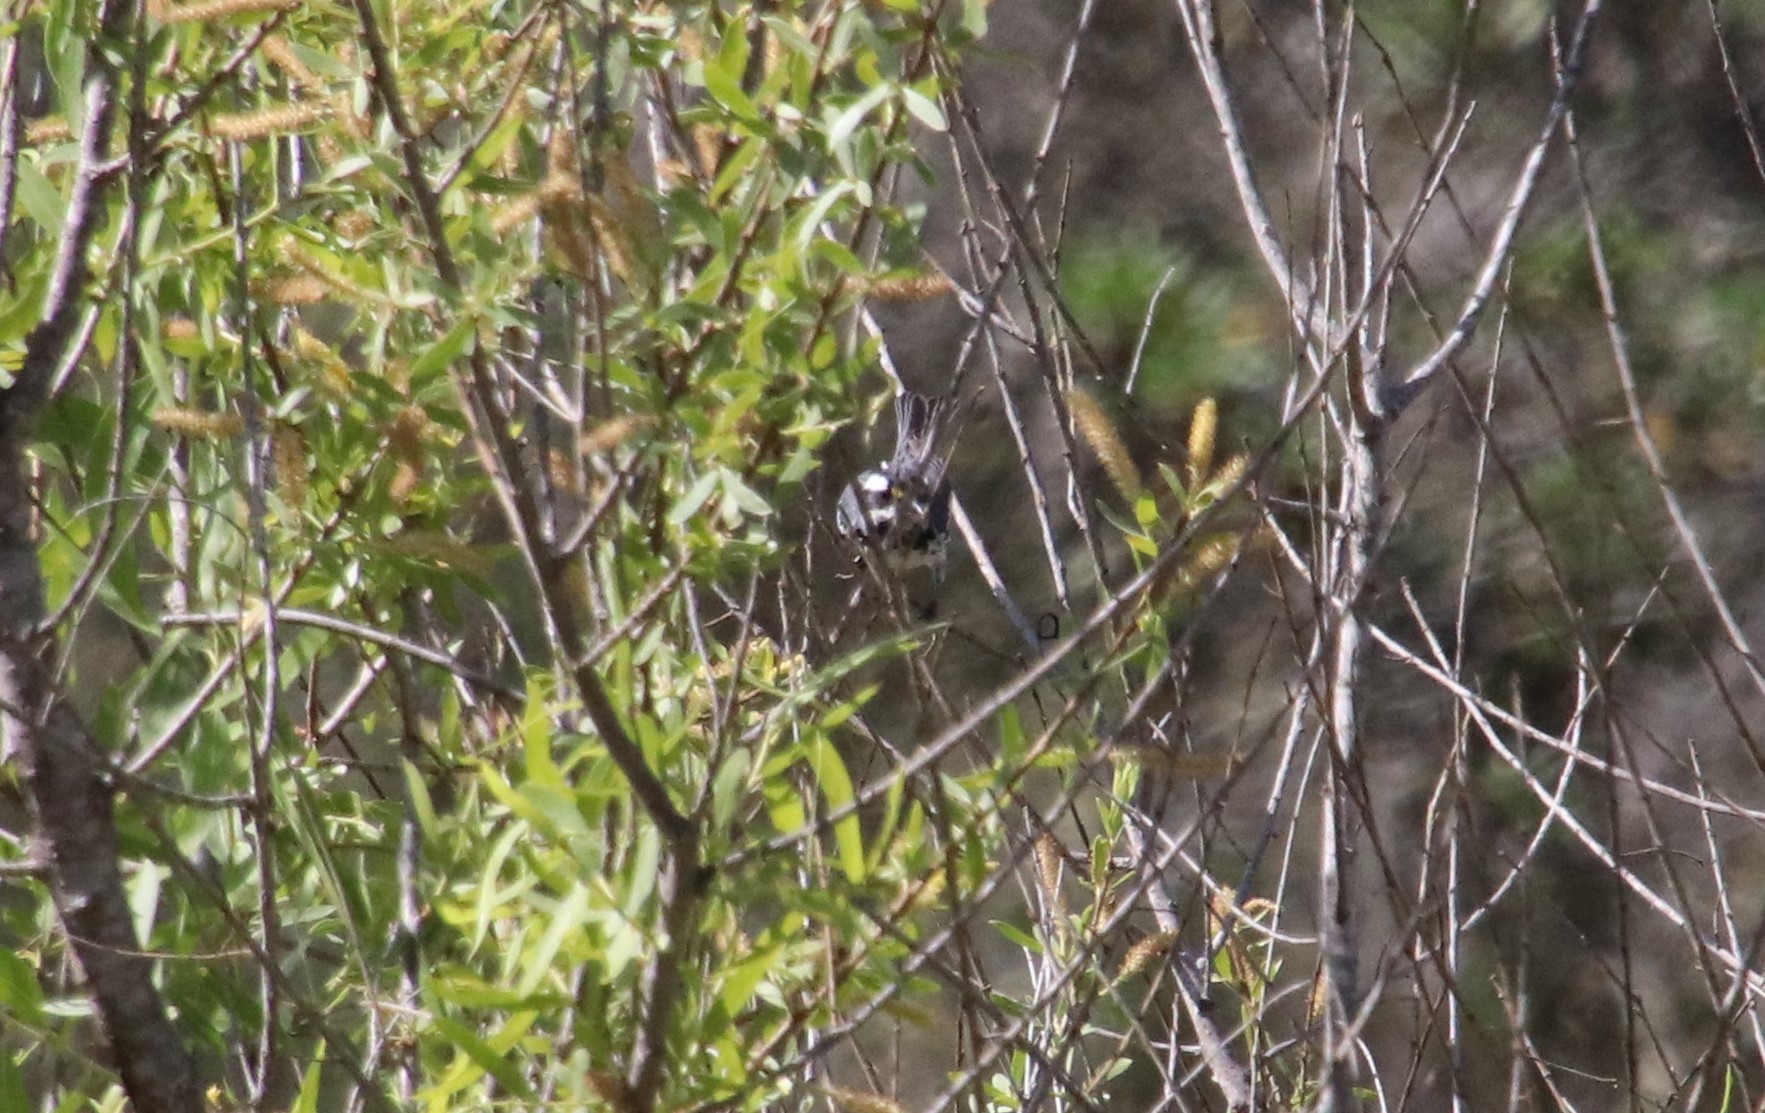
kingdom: Animalia
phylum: Chordata
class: Aves
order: Passeriformes
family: Parulidae
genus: Setophaga
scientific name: Setophaga nigrescens
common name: Black-throated gray warbler
